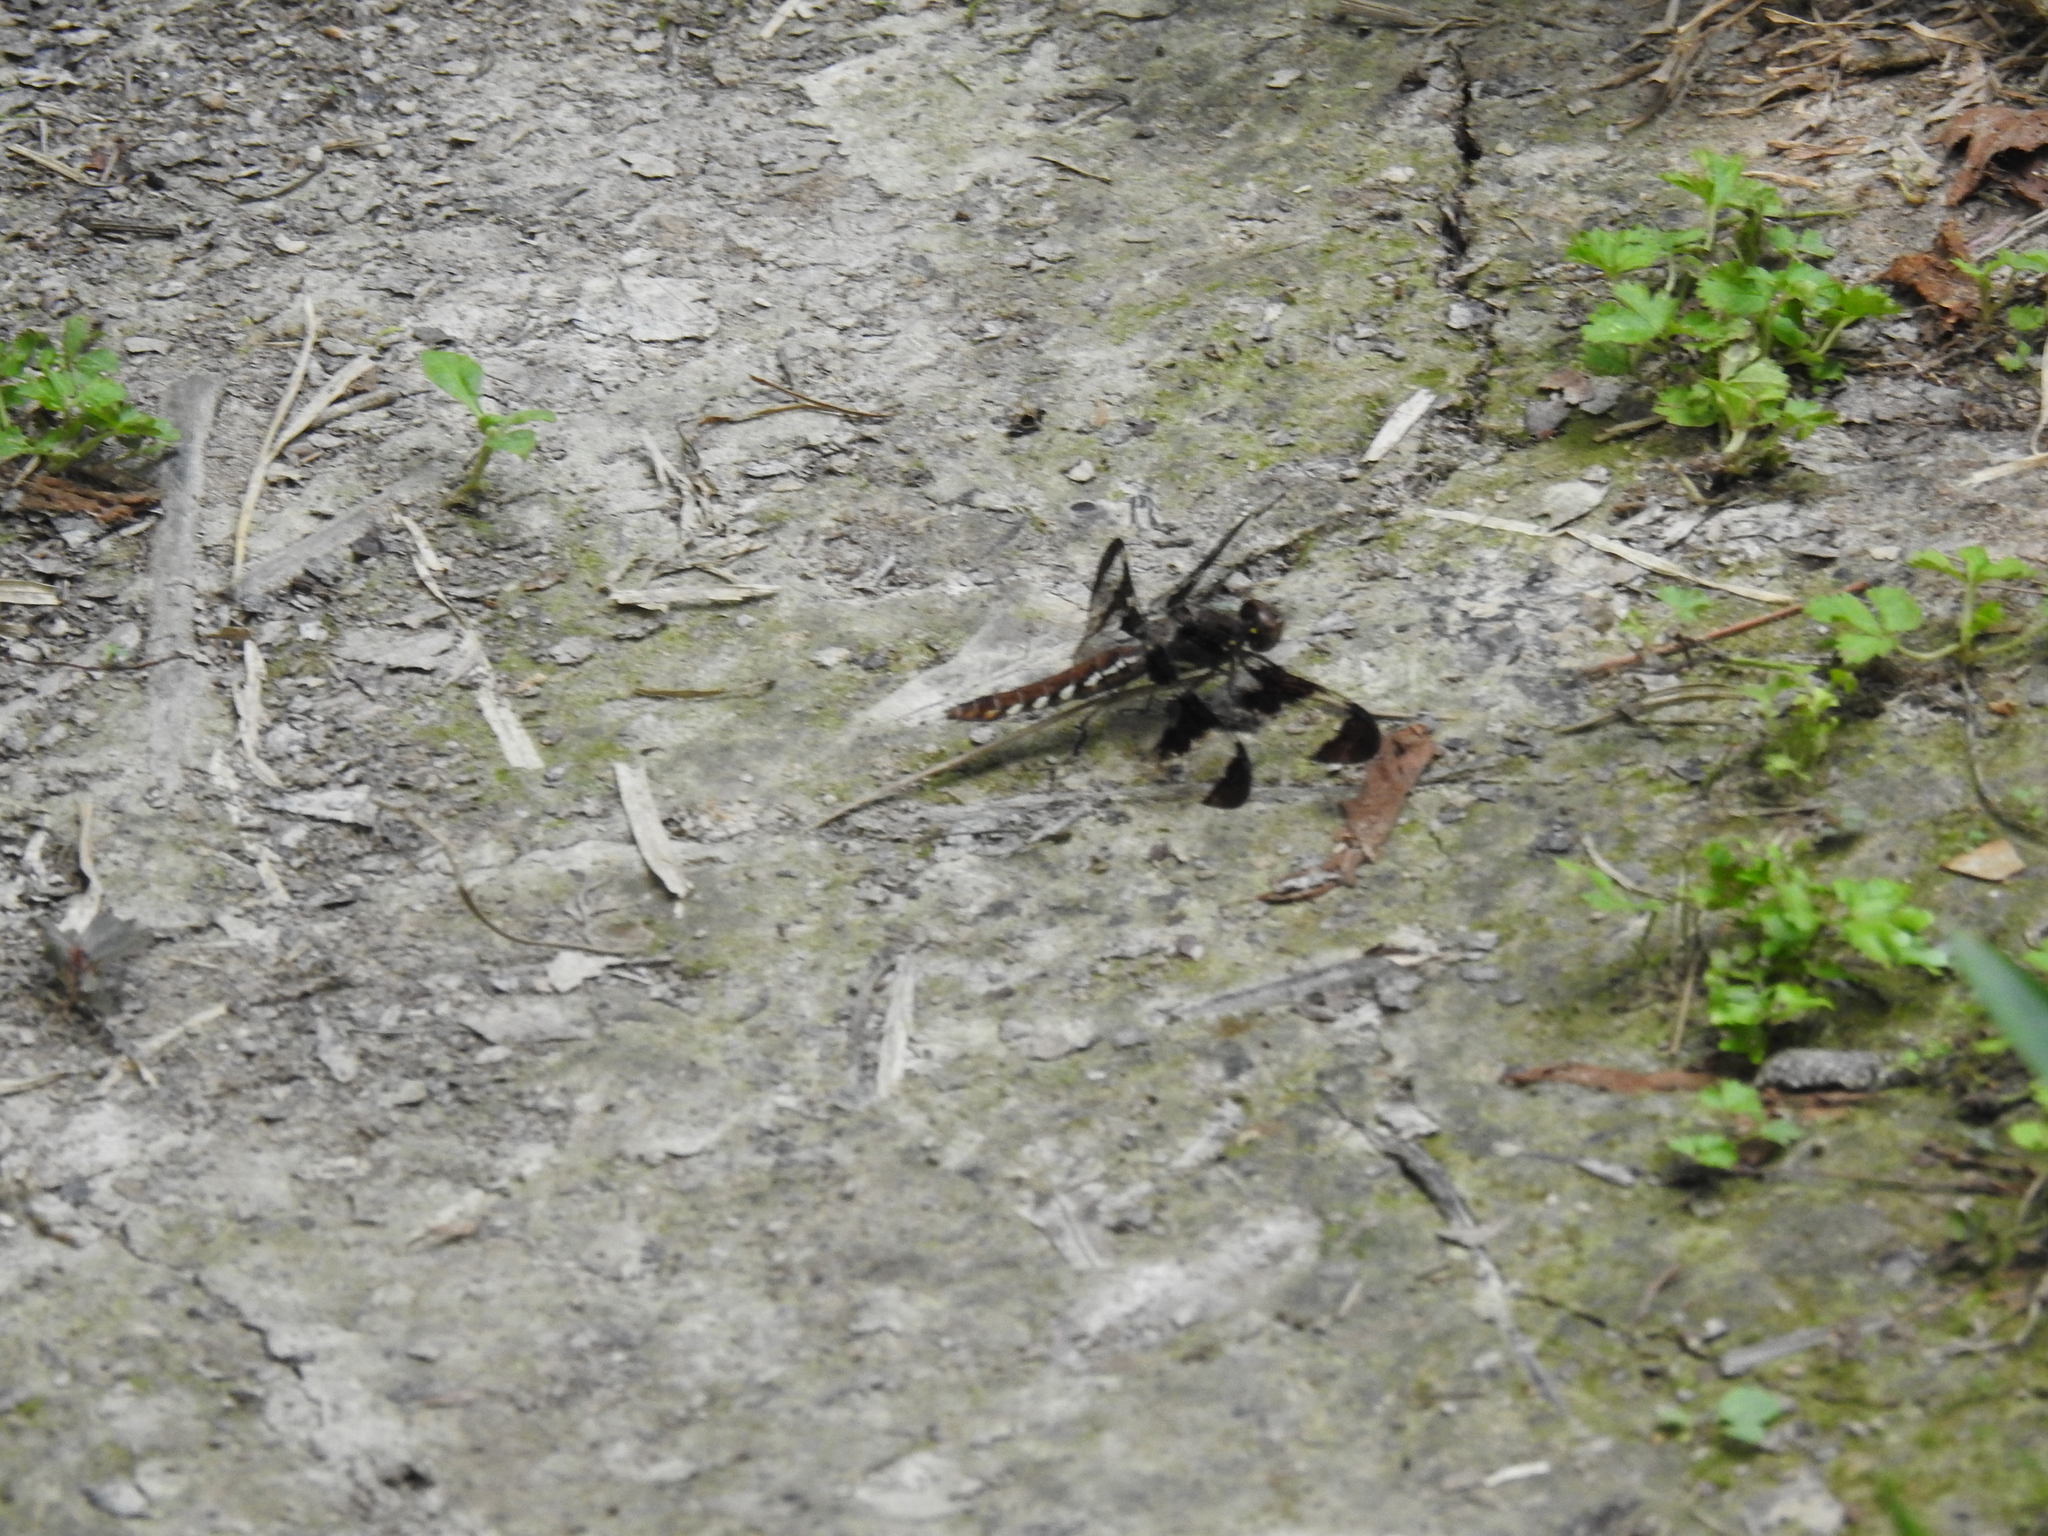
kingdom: Animalia
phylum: Arthropoda
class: Insecta
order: Odonata
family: Libellulidae
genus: Plathemis
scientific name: Plathemis lydia
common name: Common whitetail
